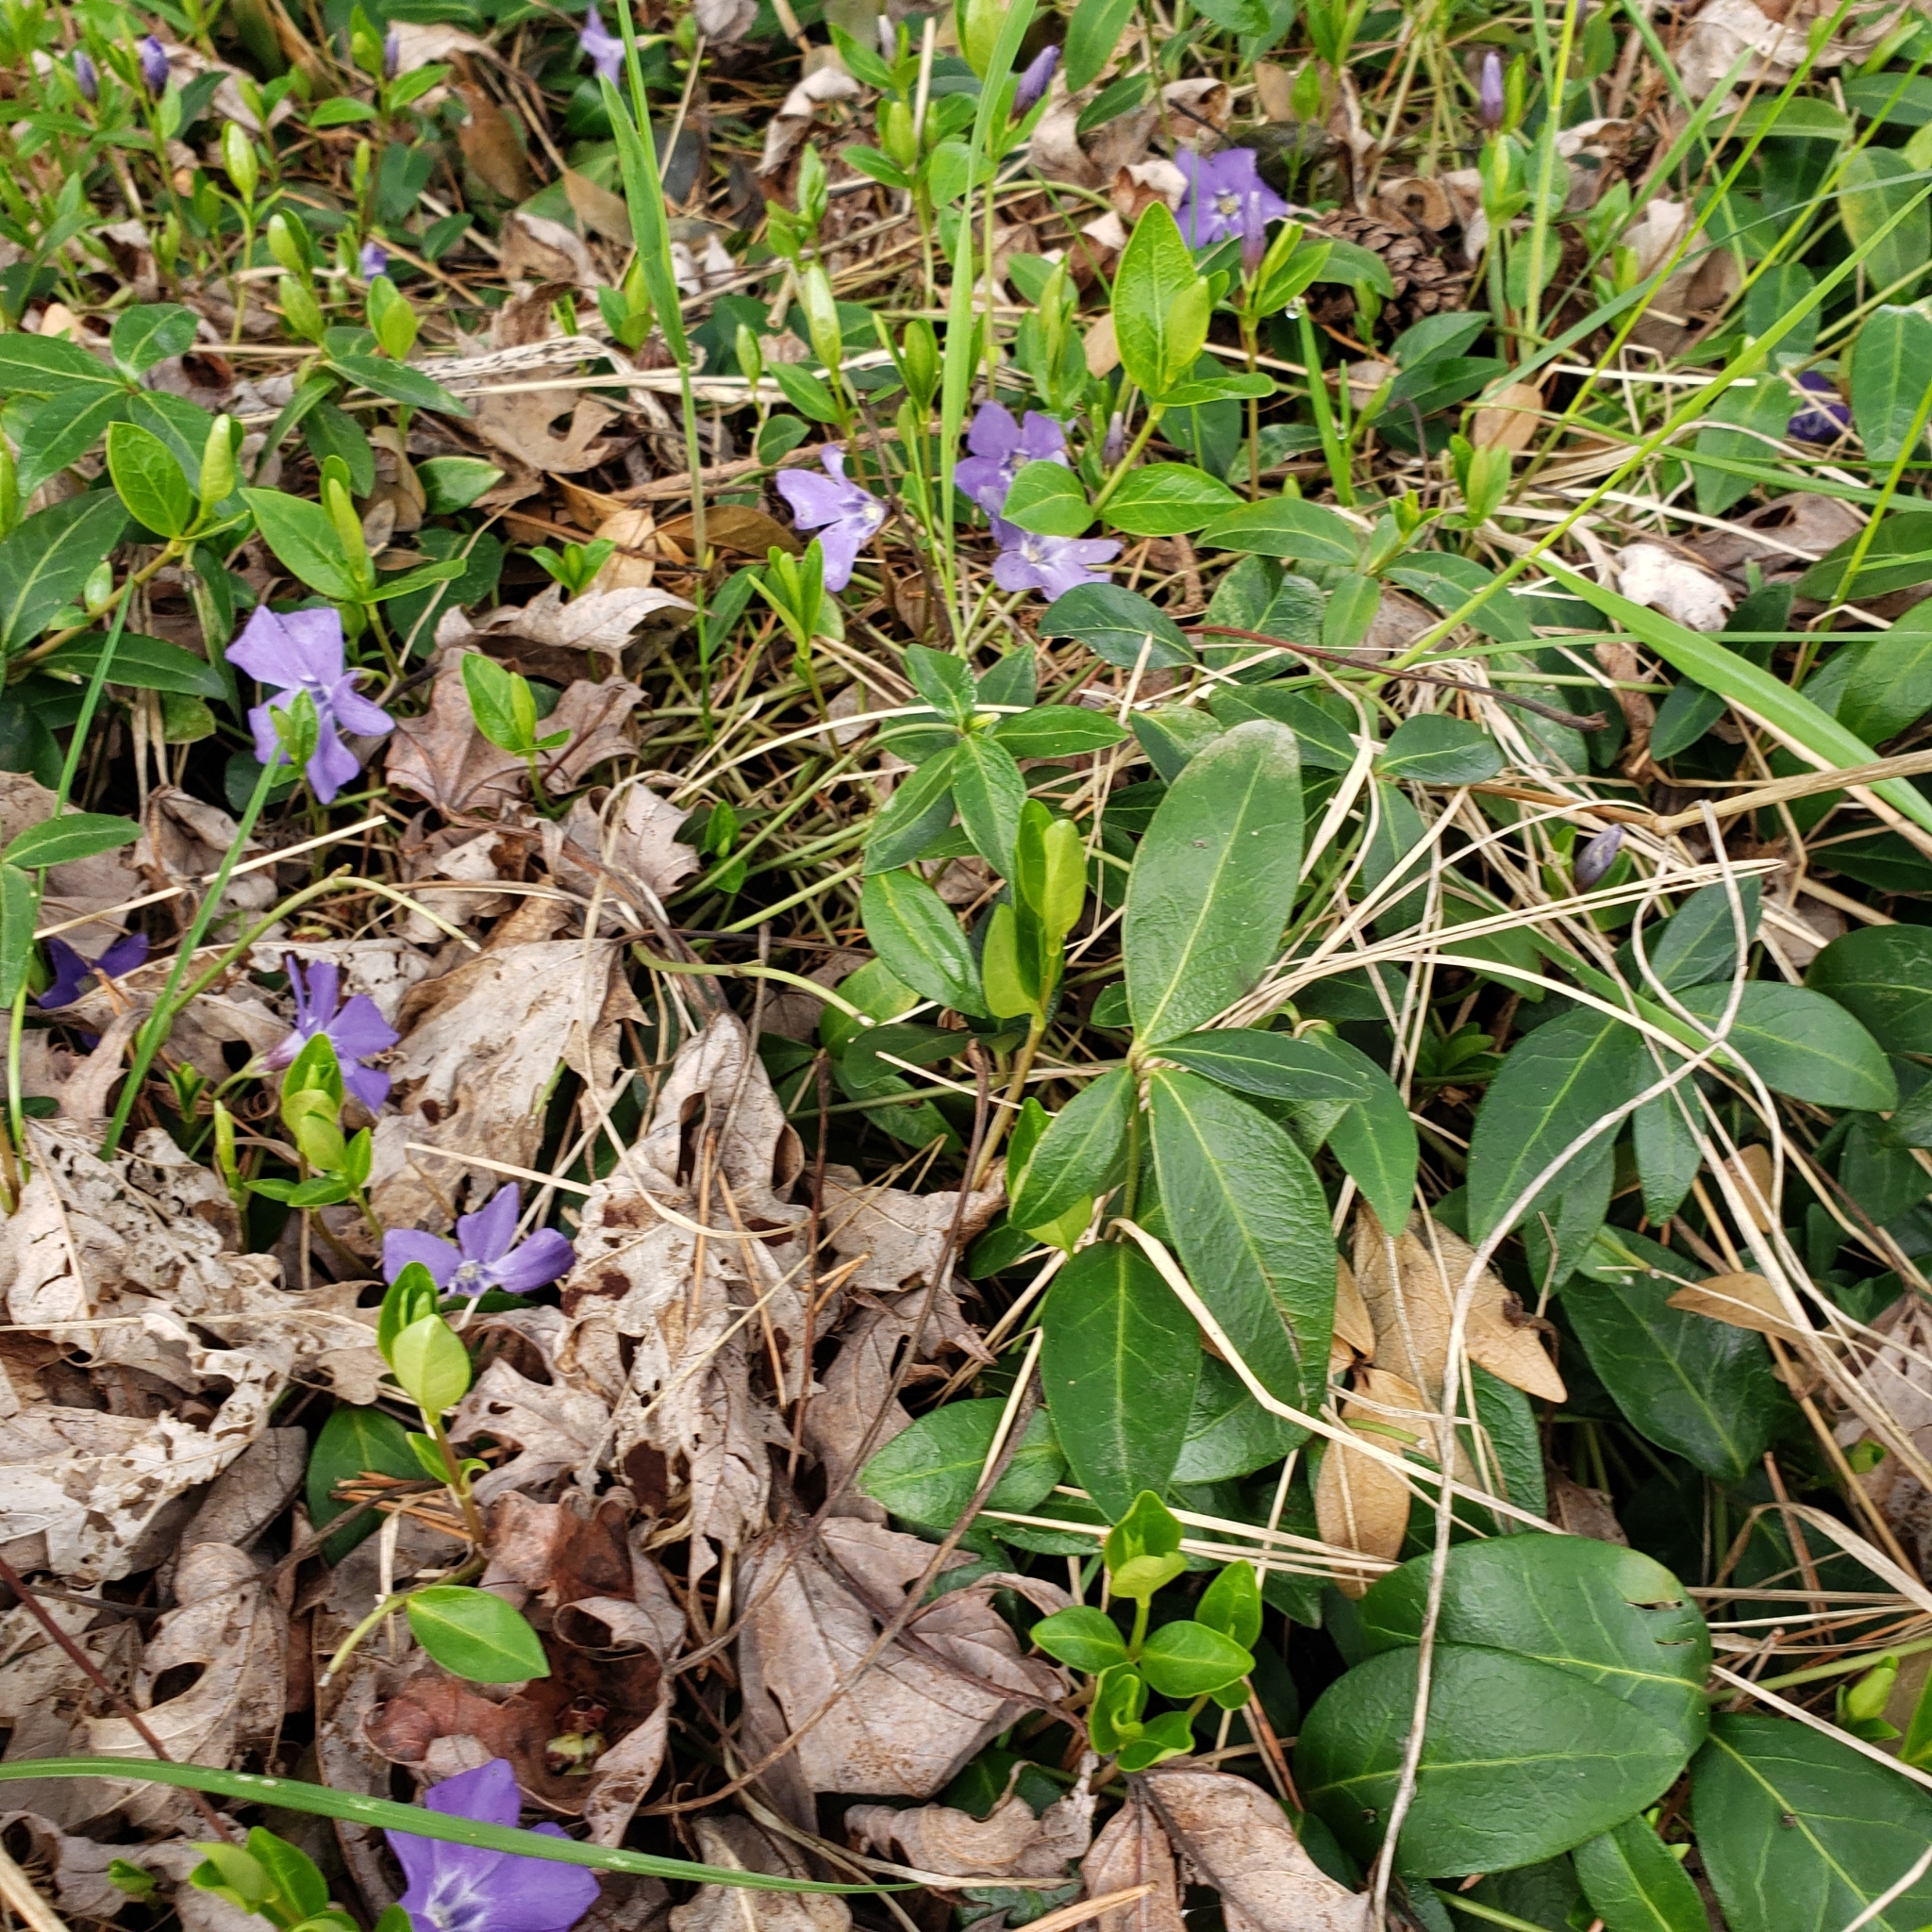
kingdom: Plantae
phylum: Tracheophyta
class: Magnoliopsida
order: Gentianales
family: Apocynaceae
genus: Vinca
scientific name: Vinca minor
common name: Lesser periwinkle
